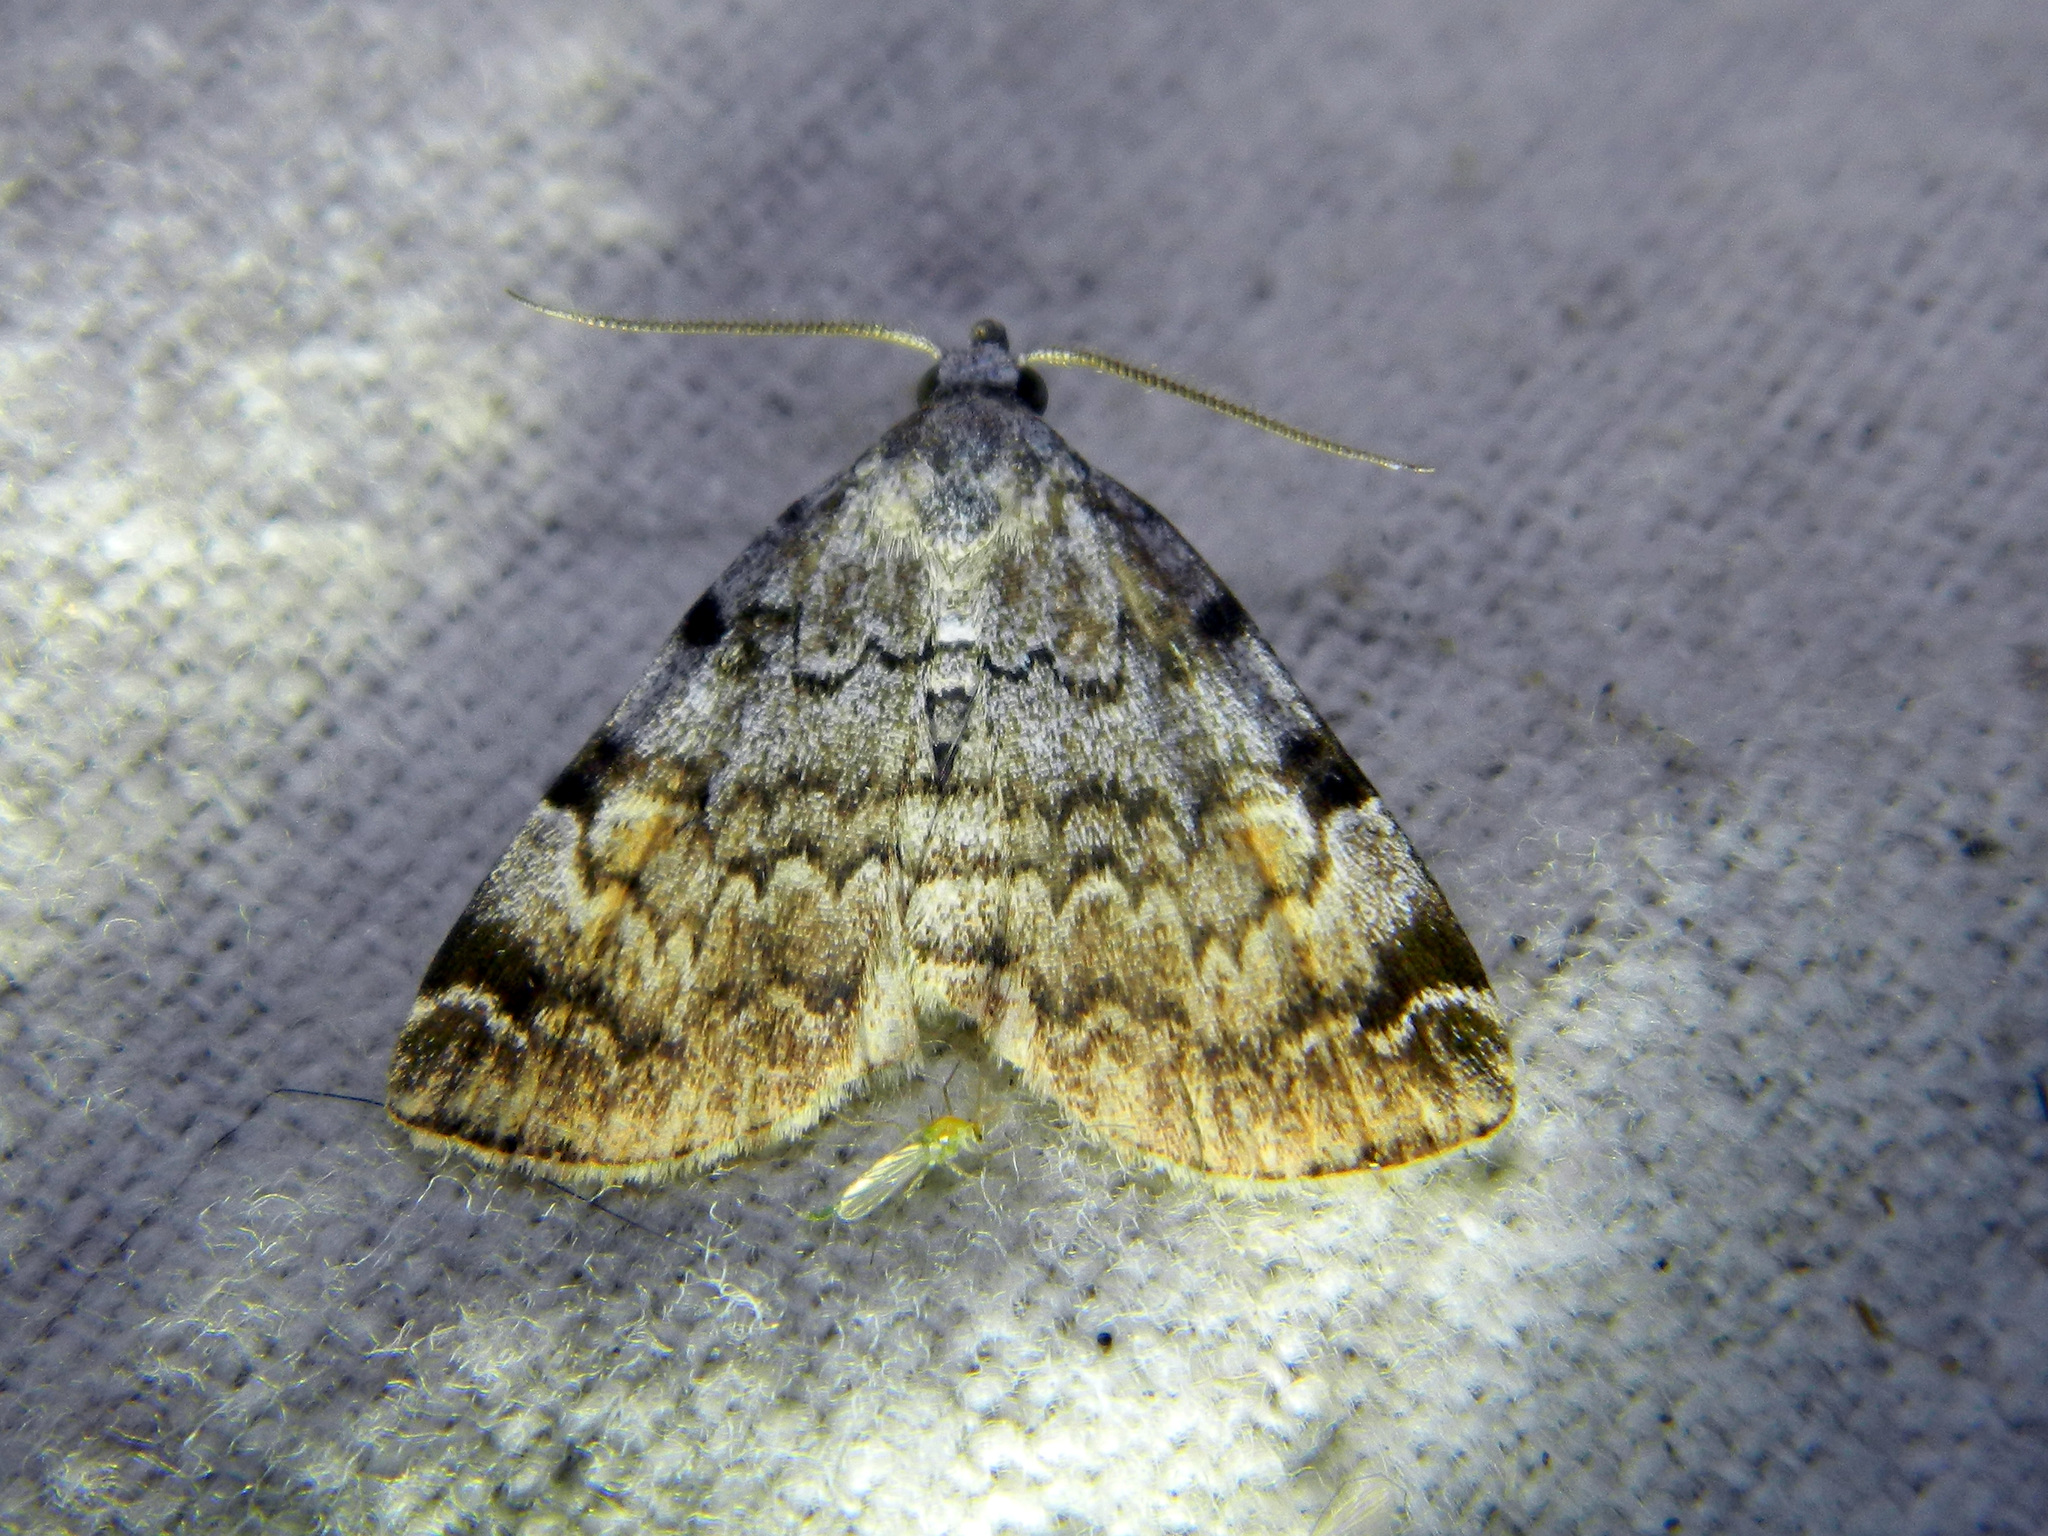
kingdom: Animalia
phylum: Arthropoda
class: Insecta
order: Lepidoptera
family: Erebidae
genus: Idia
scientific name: Idia americalis
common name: American idia moth
